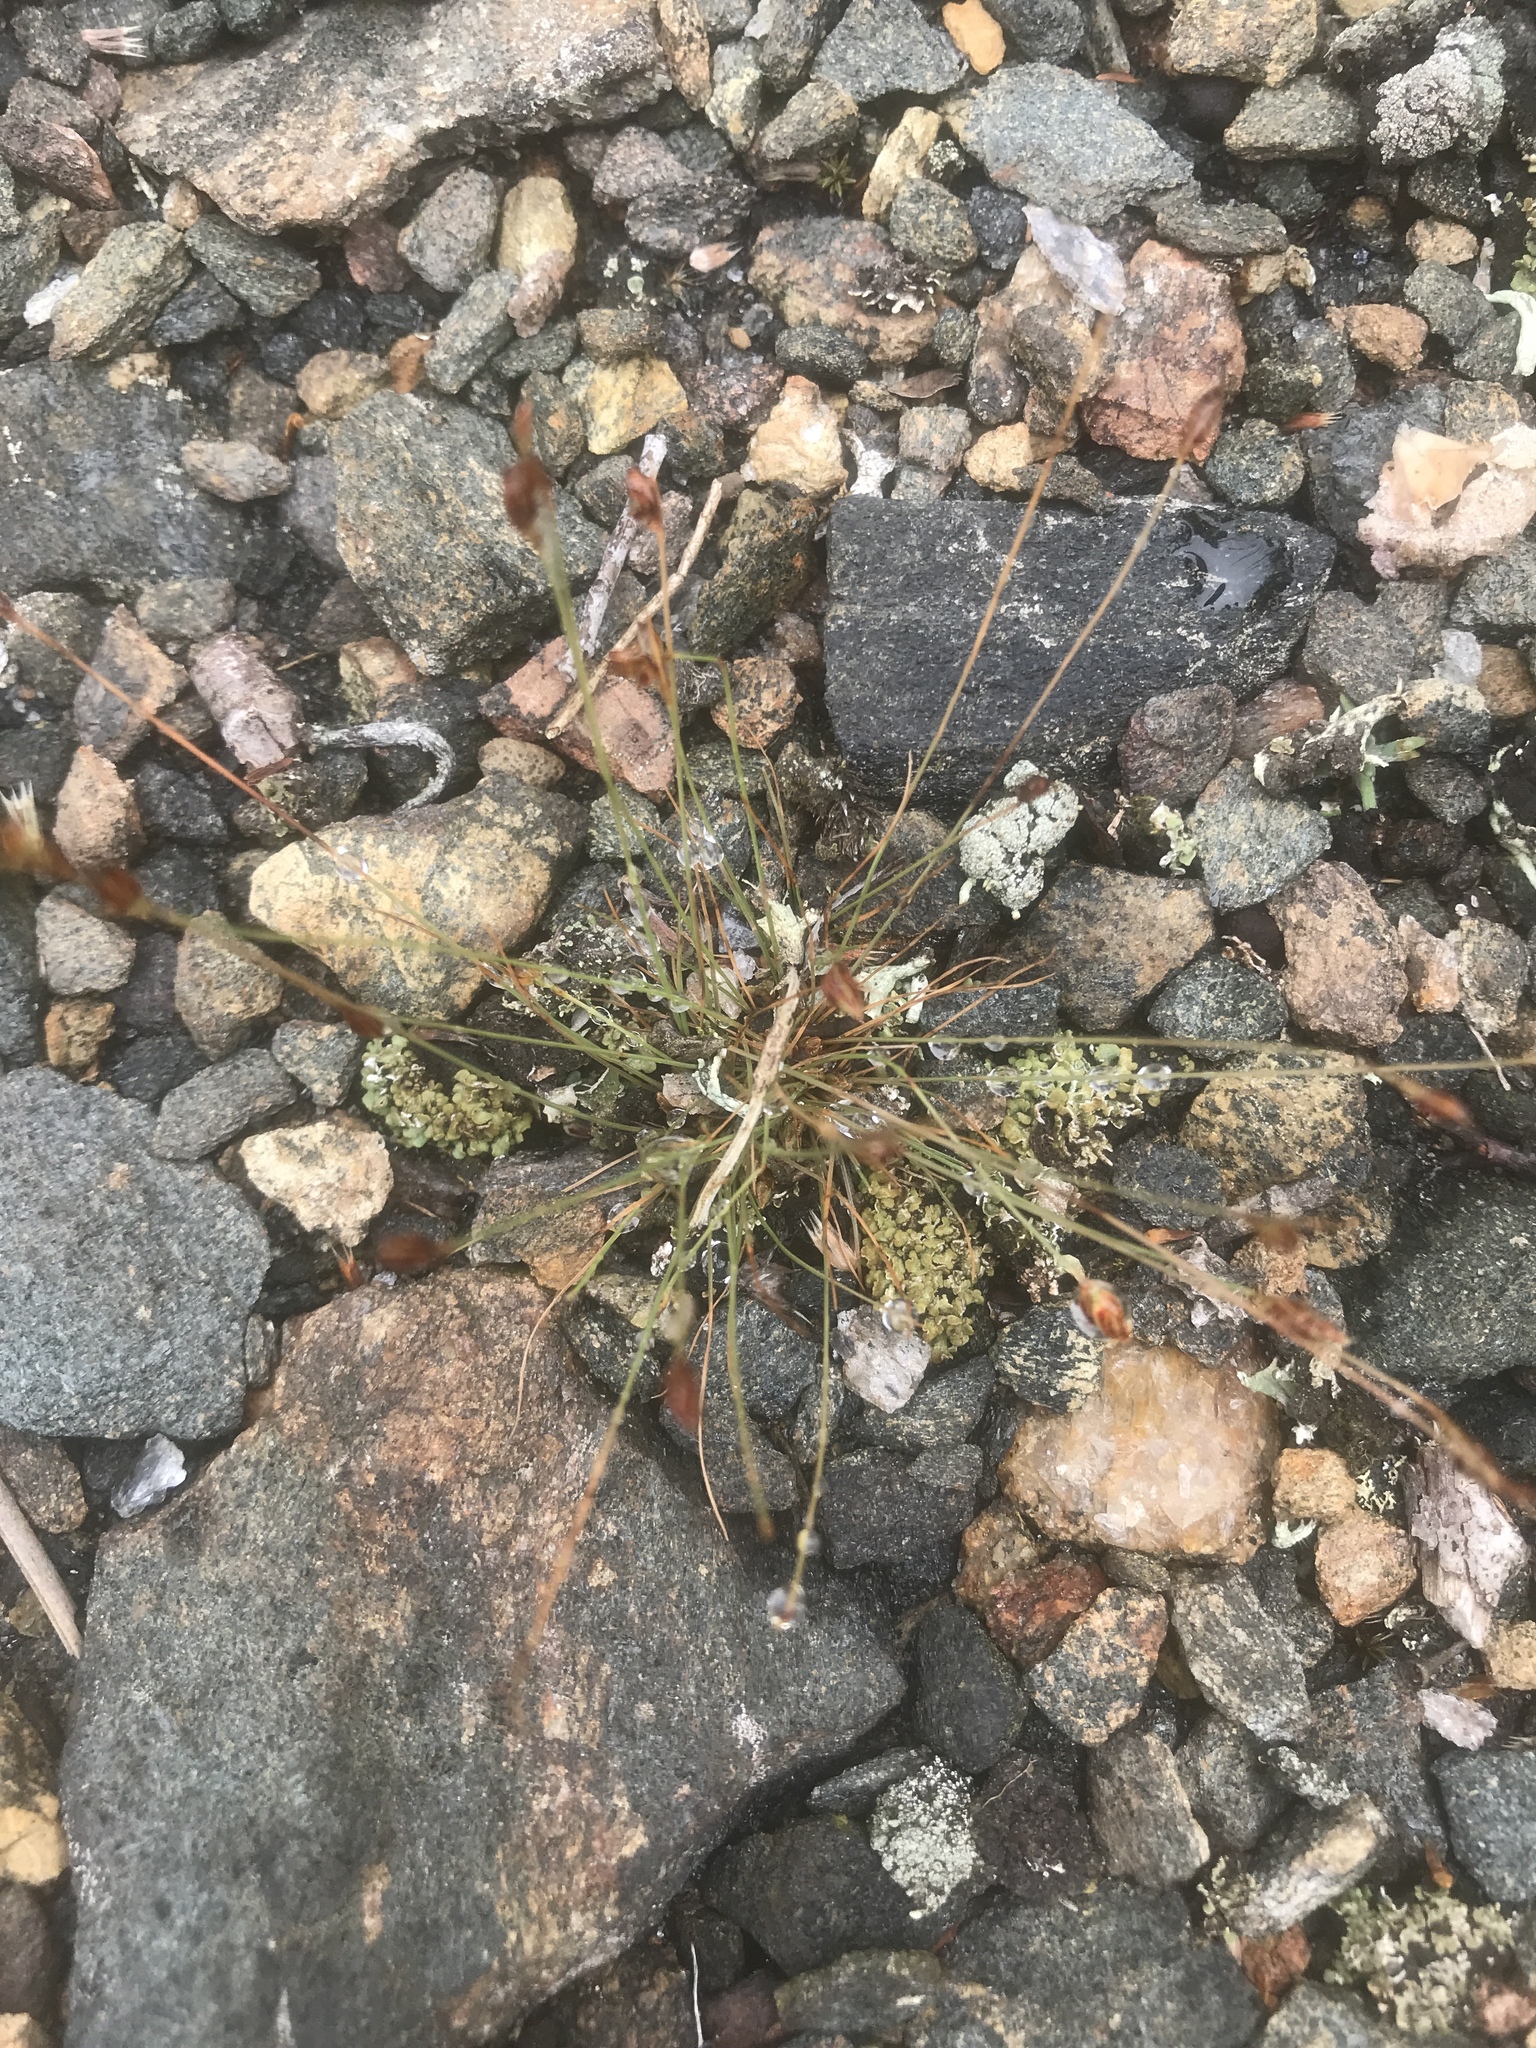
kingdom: Plantae
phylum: Tracheophyta
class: Liliopsida
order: Poales
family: Cyperaceae
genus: Bulbostylis
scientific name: Bulbostylis capillaris
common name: Densetuft hairsedge
